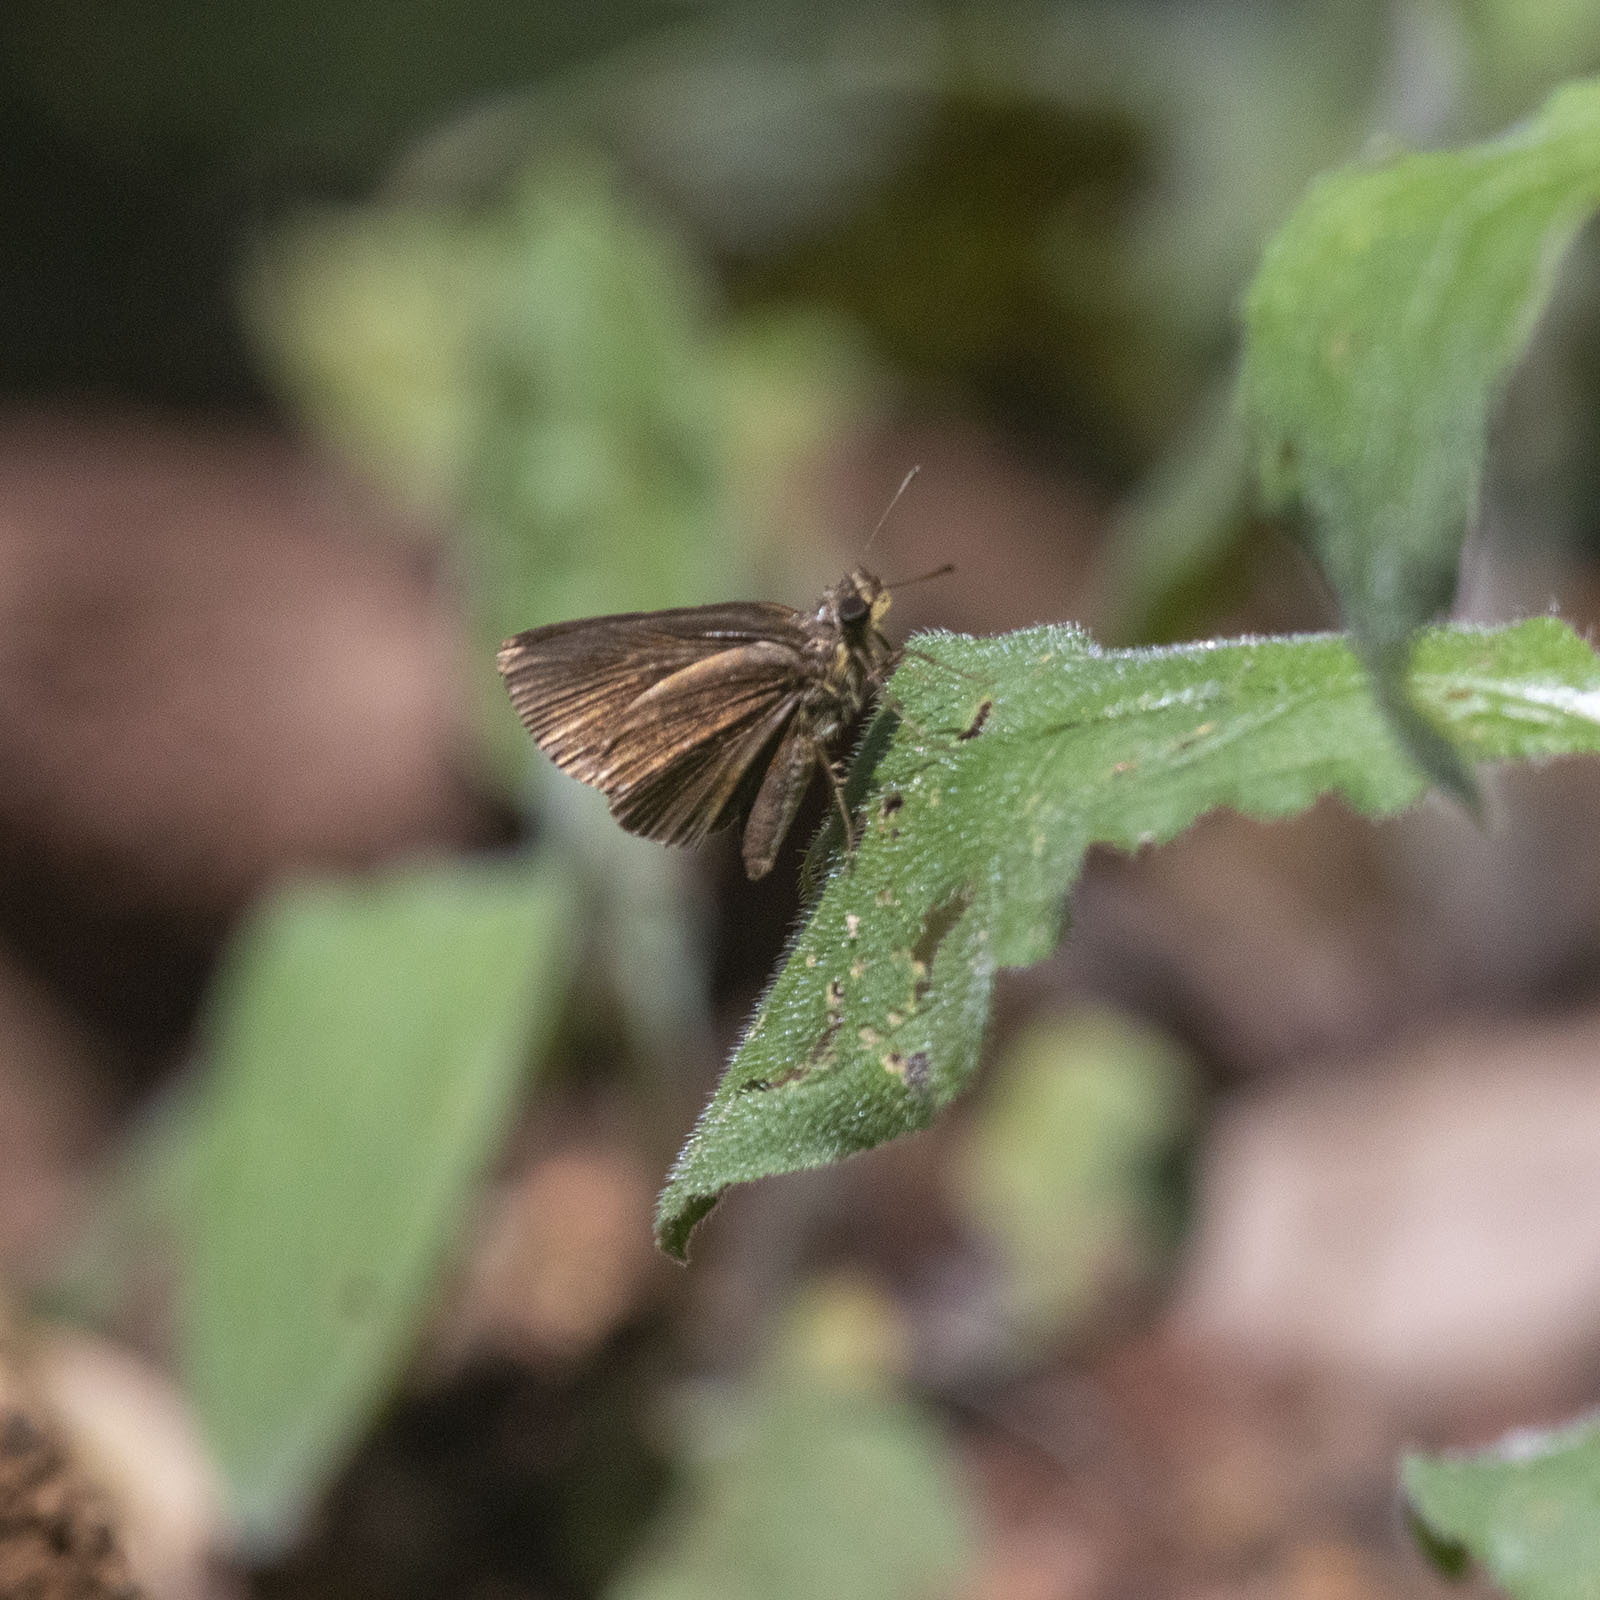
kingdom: Animalia
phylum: Arthropoda
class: Insecta
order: Lepidoptera
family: Hesperiidae
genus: Iambrix
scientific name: Iambrix salsala
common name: Chestnut bob
